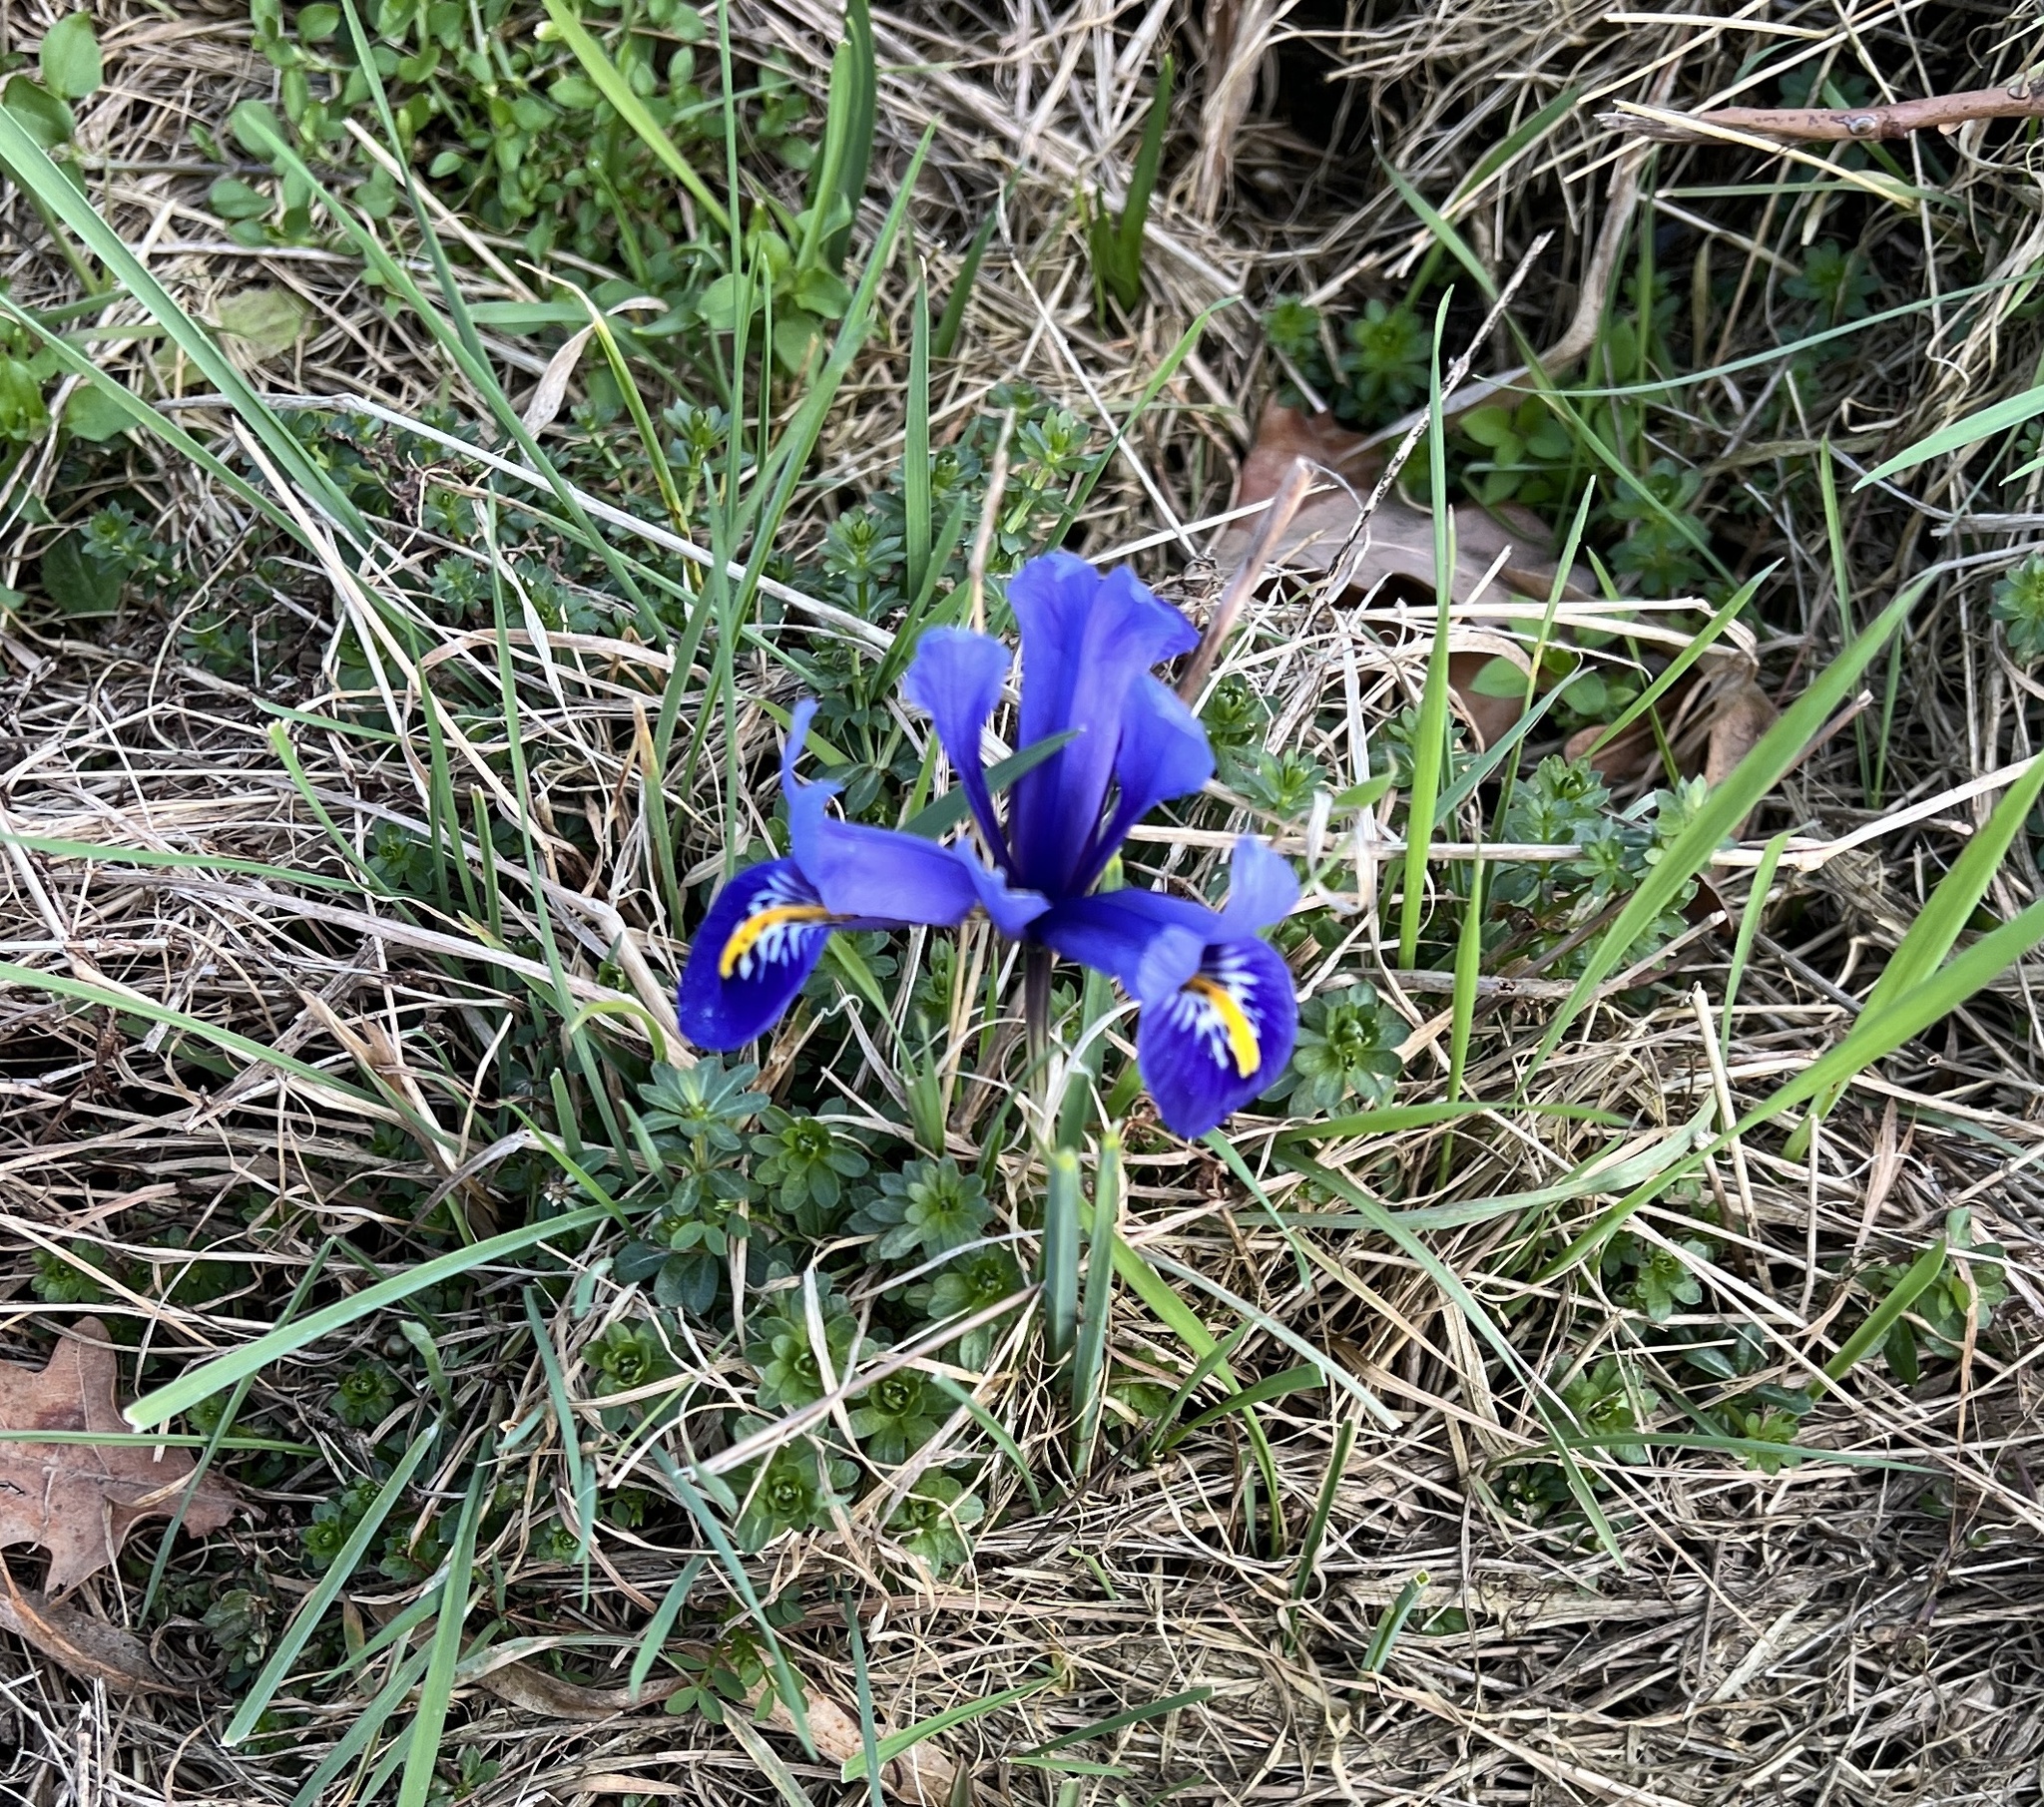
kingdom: Plantae
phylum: Tracheophyta
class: Liliopsida
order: Asparagales
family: Iridaceae
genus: Iris
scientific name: Iris reticulata
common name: Netted iris
